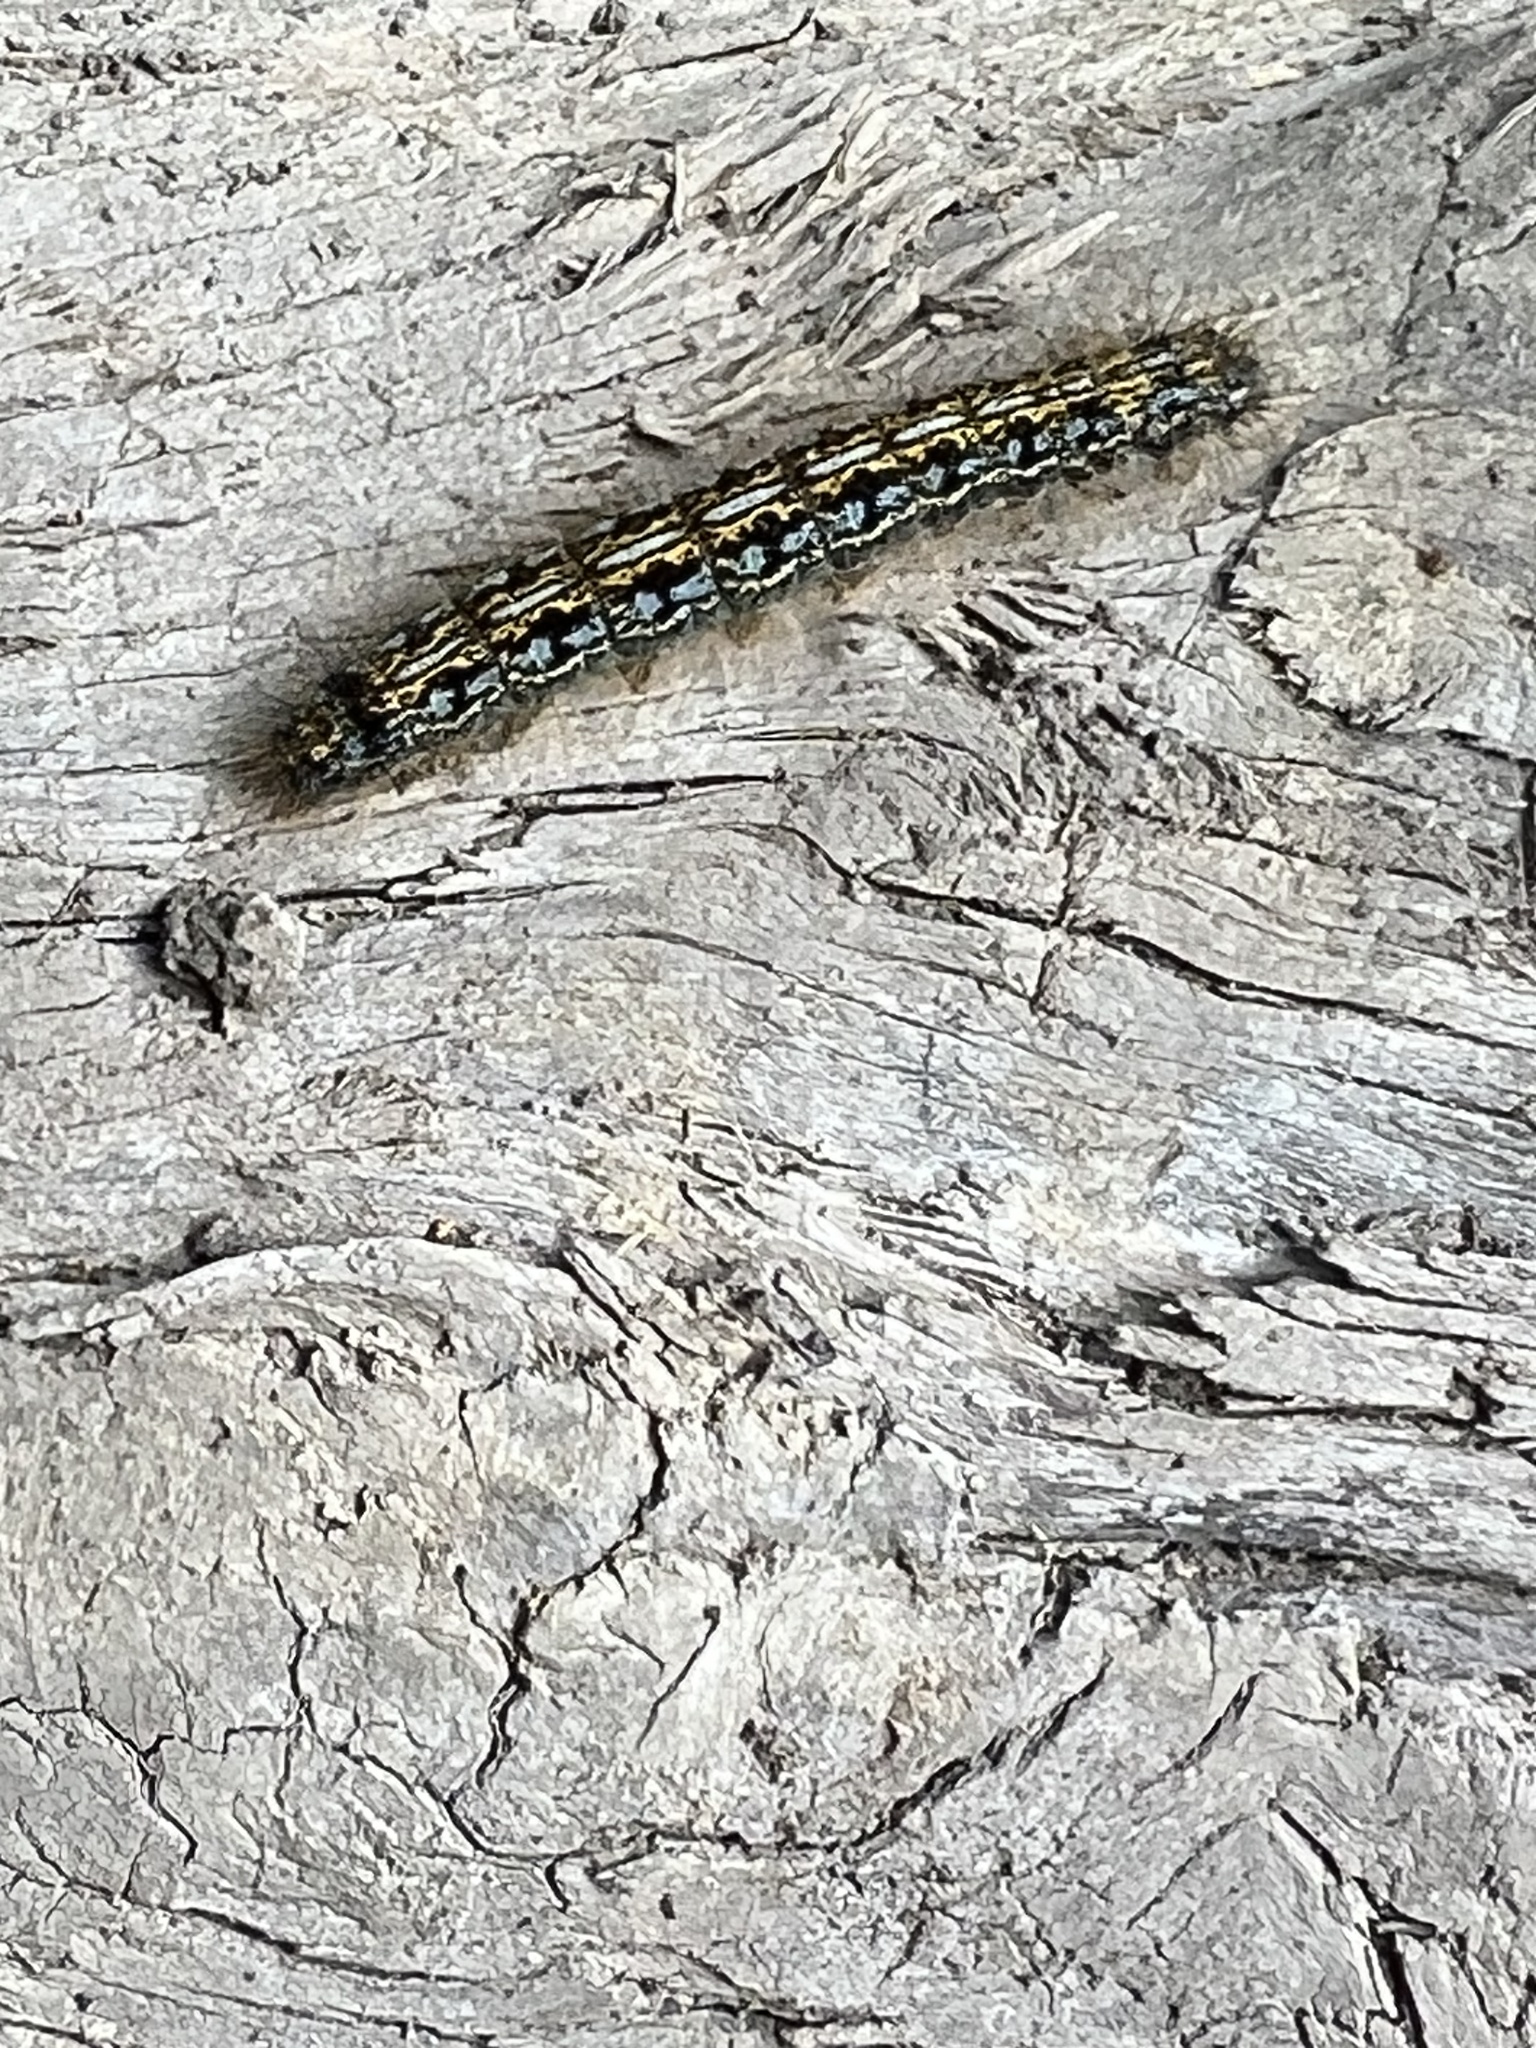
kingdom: Animalia
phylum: Arthropoda
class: Insecta
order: Lepidoptera
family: Lasiocampidae
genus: Malacosoma
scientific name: Malacosoma californica
